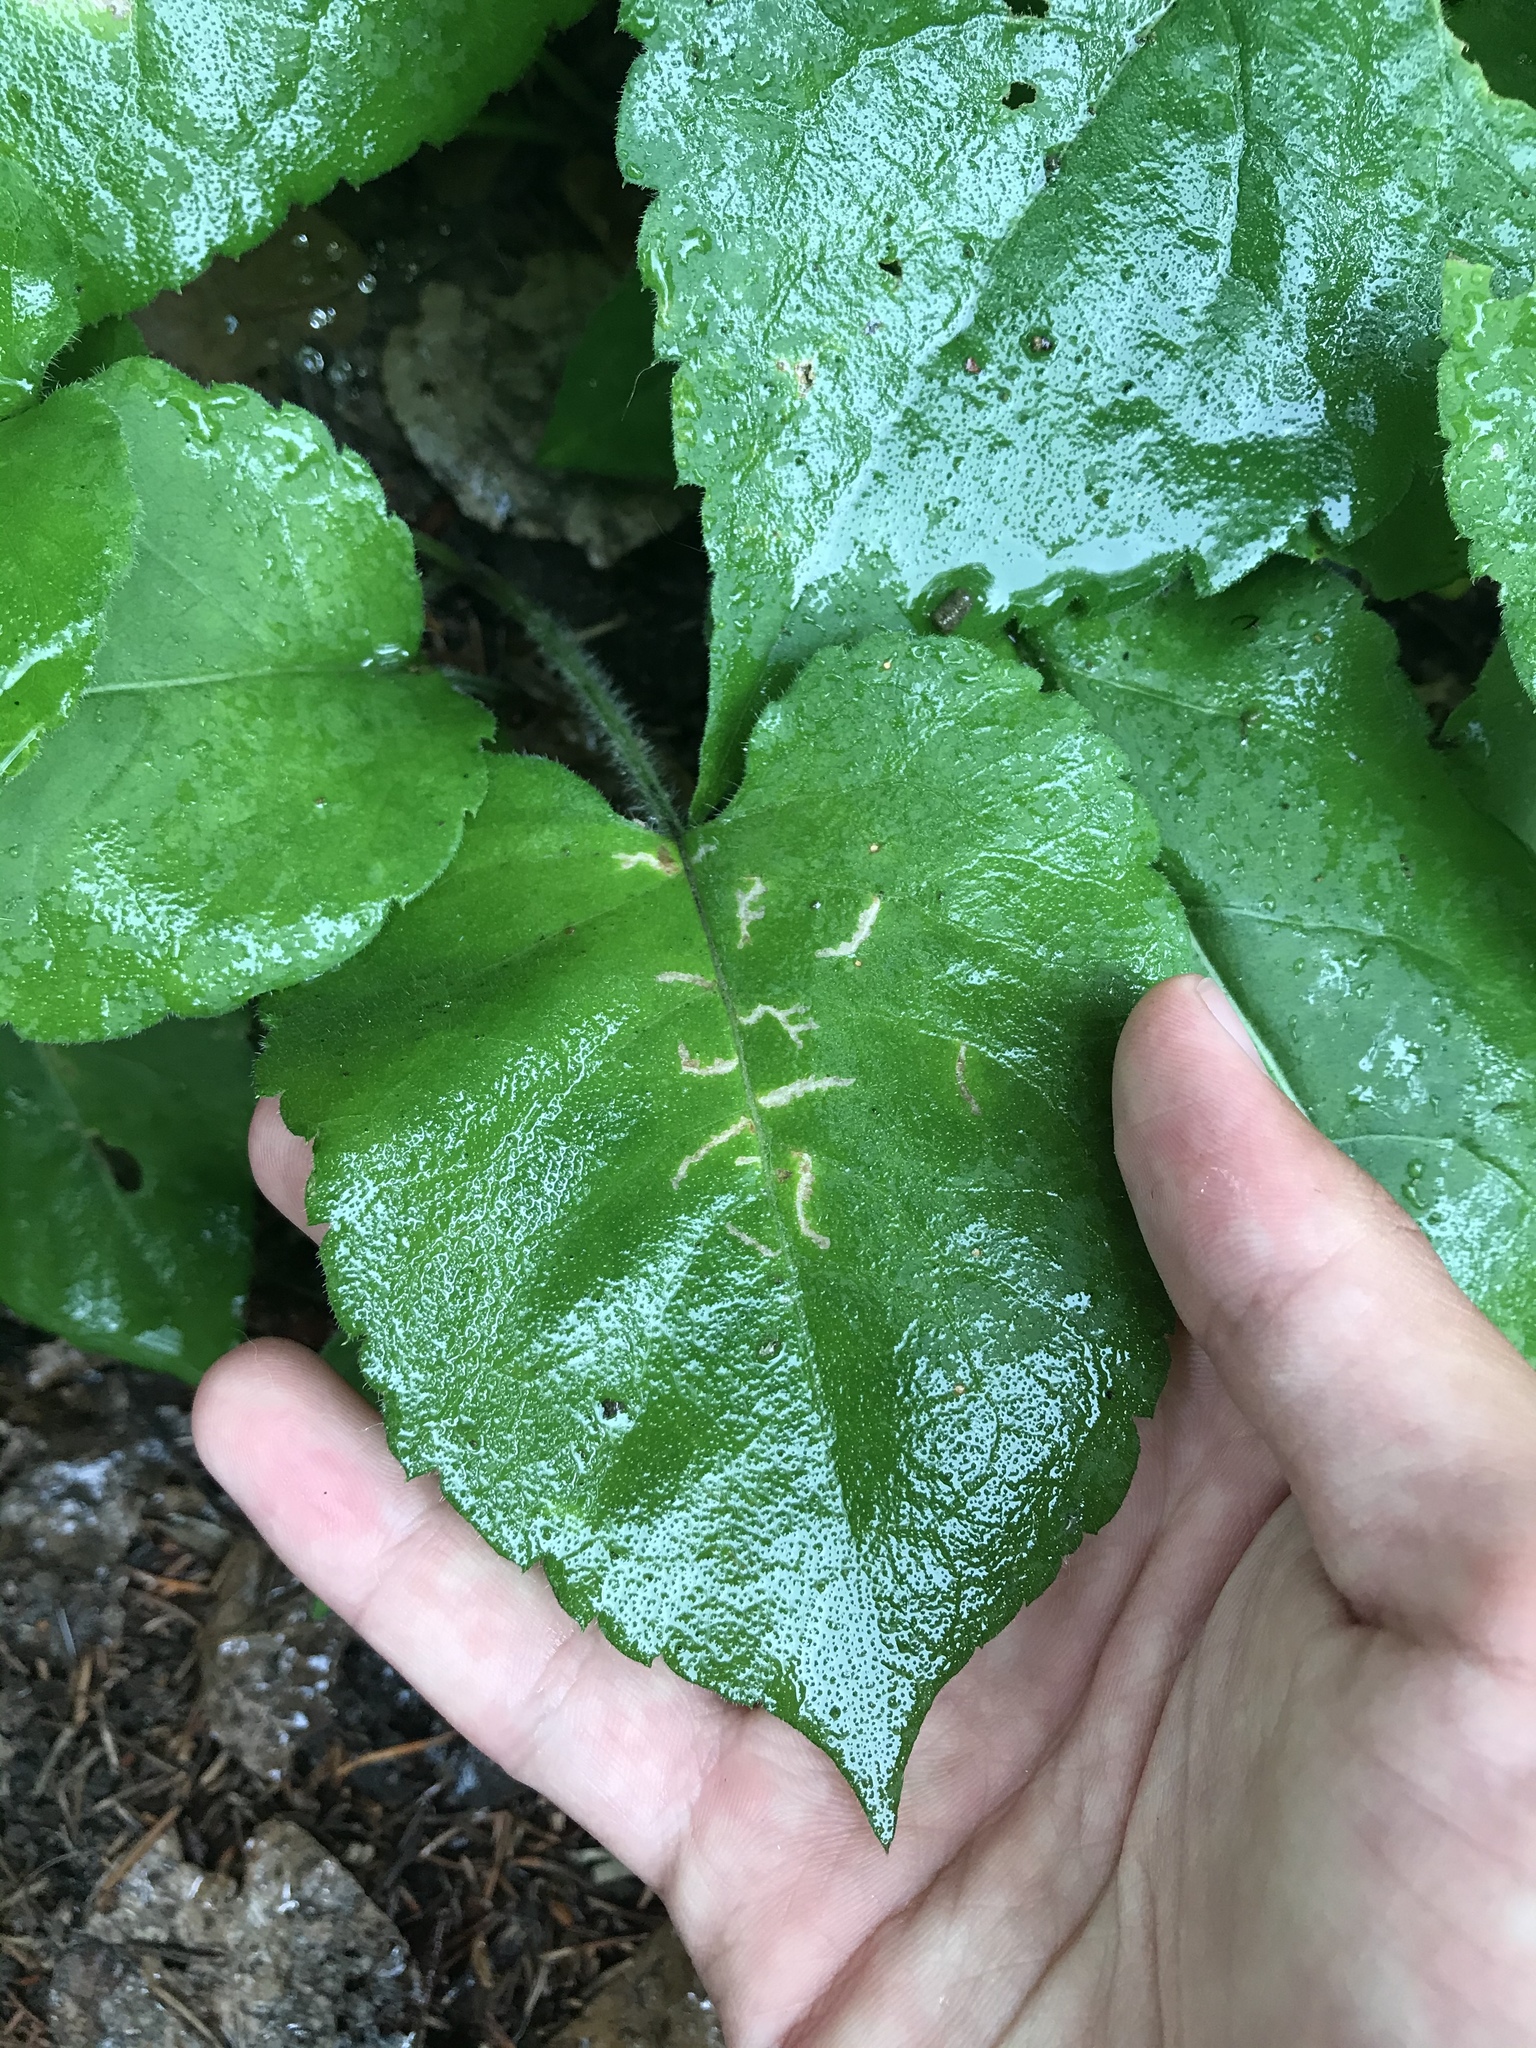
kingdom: Animalia
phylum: Arthropoda
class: Insecta
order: Lepidoptera
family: Gelechiidae
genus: Scrobipalpula
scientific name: Scrobipalpula manierreorum
